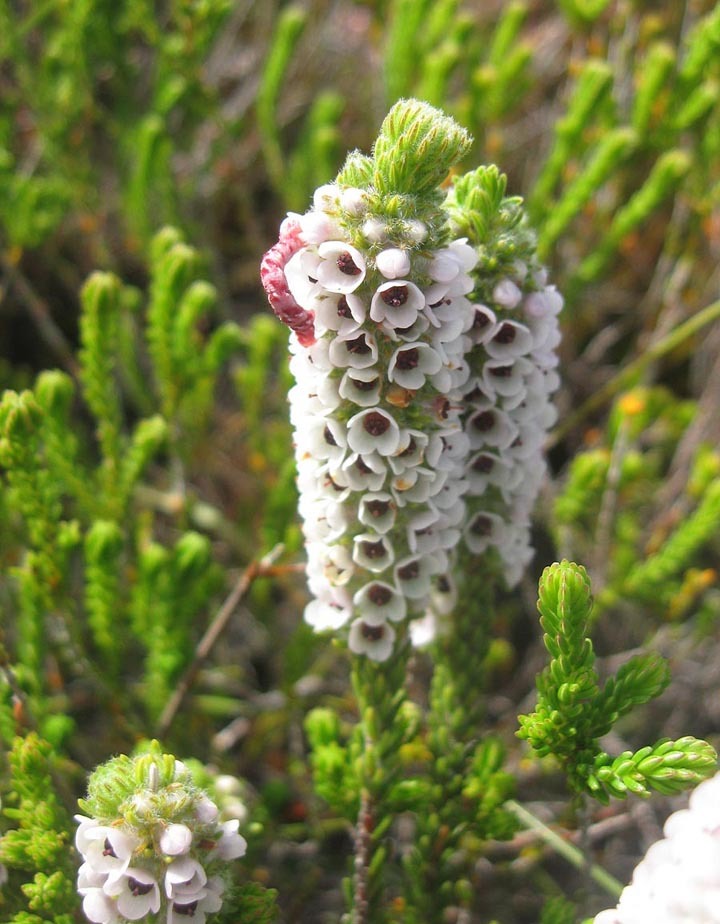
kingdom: Plantae
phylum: Tracheophyta
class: Magnoliopsida
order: Ericales
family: Ericaceae
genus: Erica
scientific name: Erica pyxidiflora
